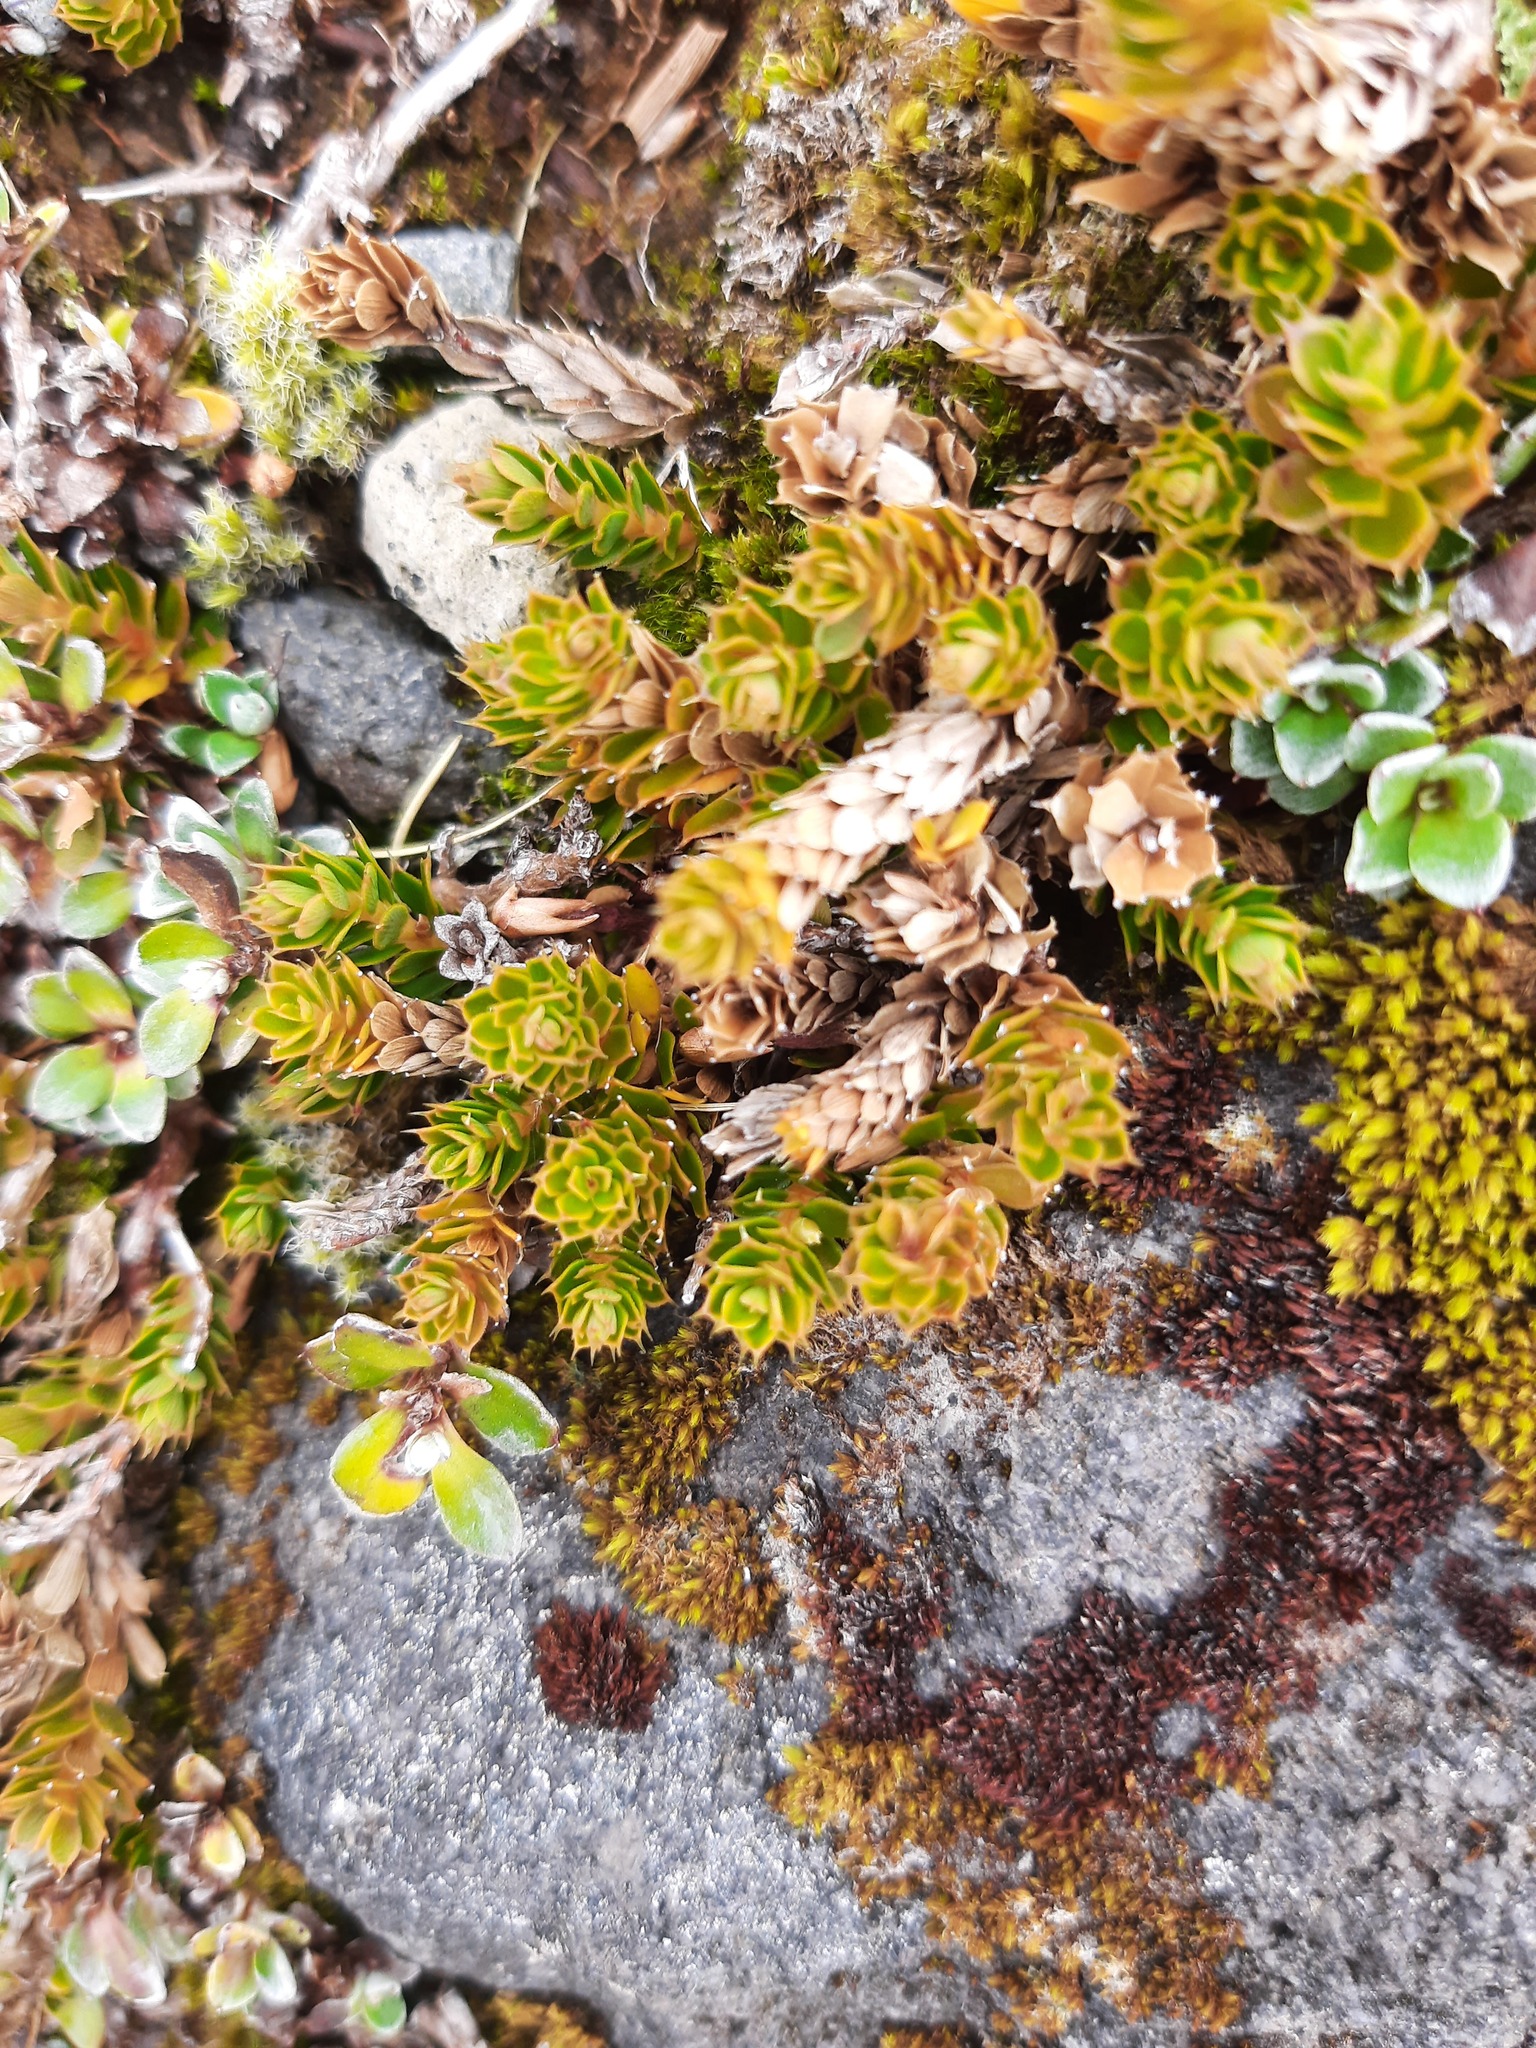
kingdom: Plantae
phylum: Tracheophyta
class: Magnoliopsida
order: Ericales
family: Ericaceae
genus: Styphelia
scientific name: Styphelia nesophila
